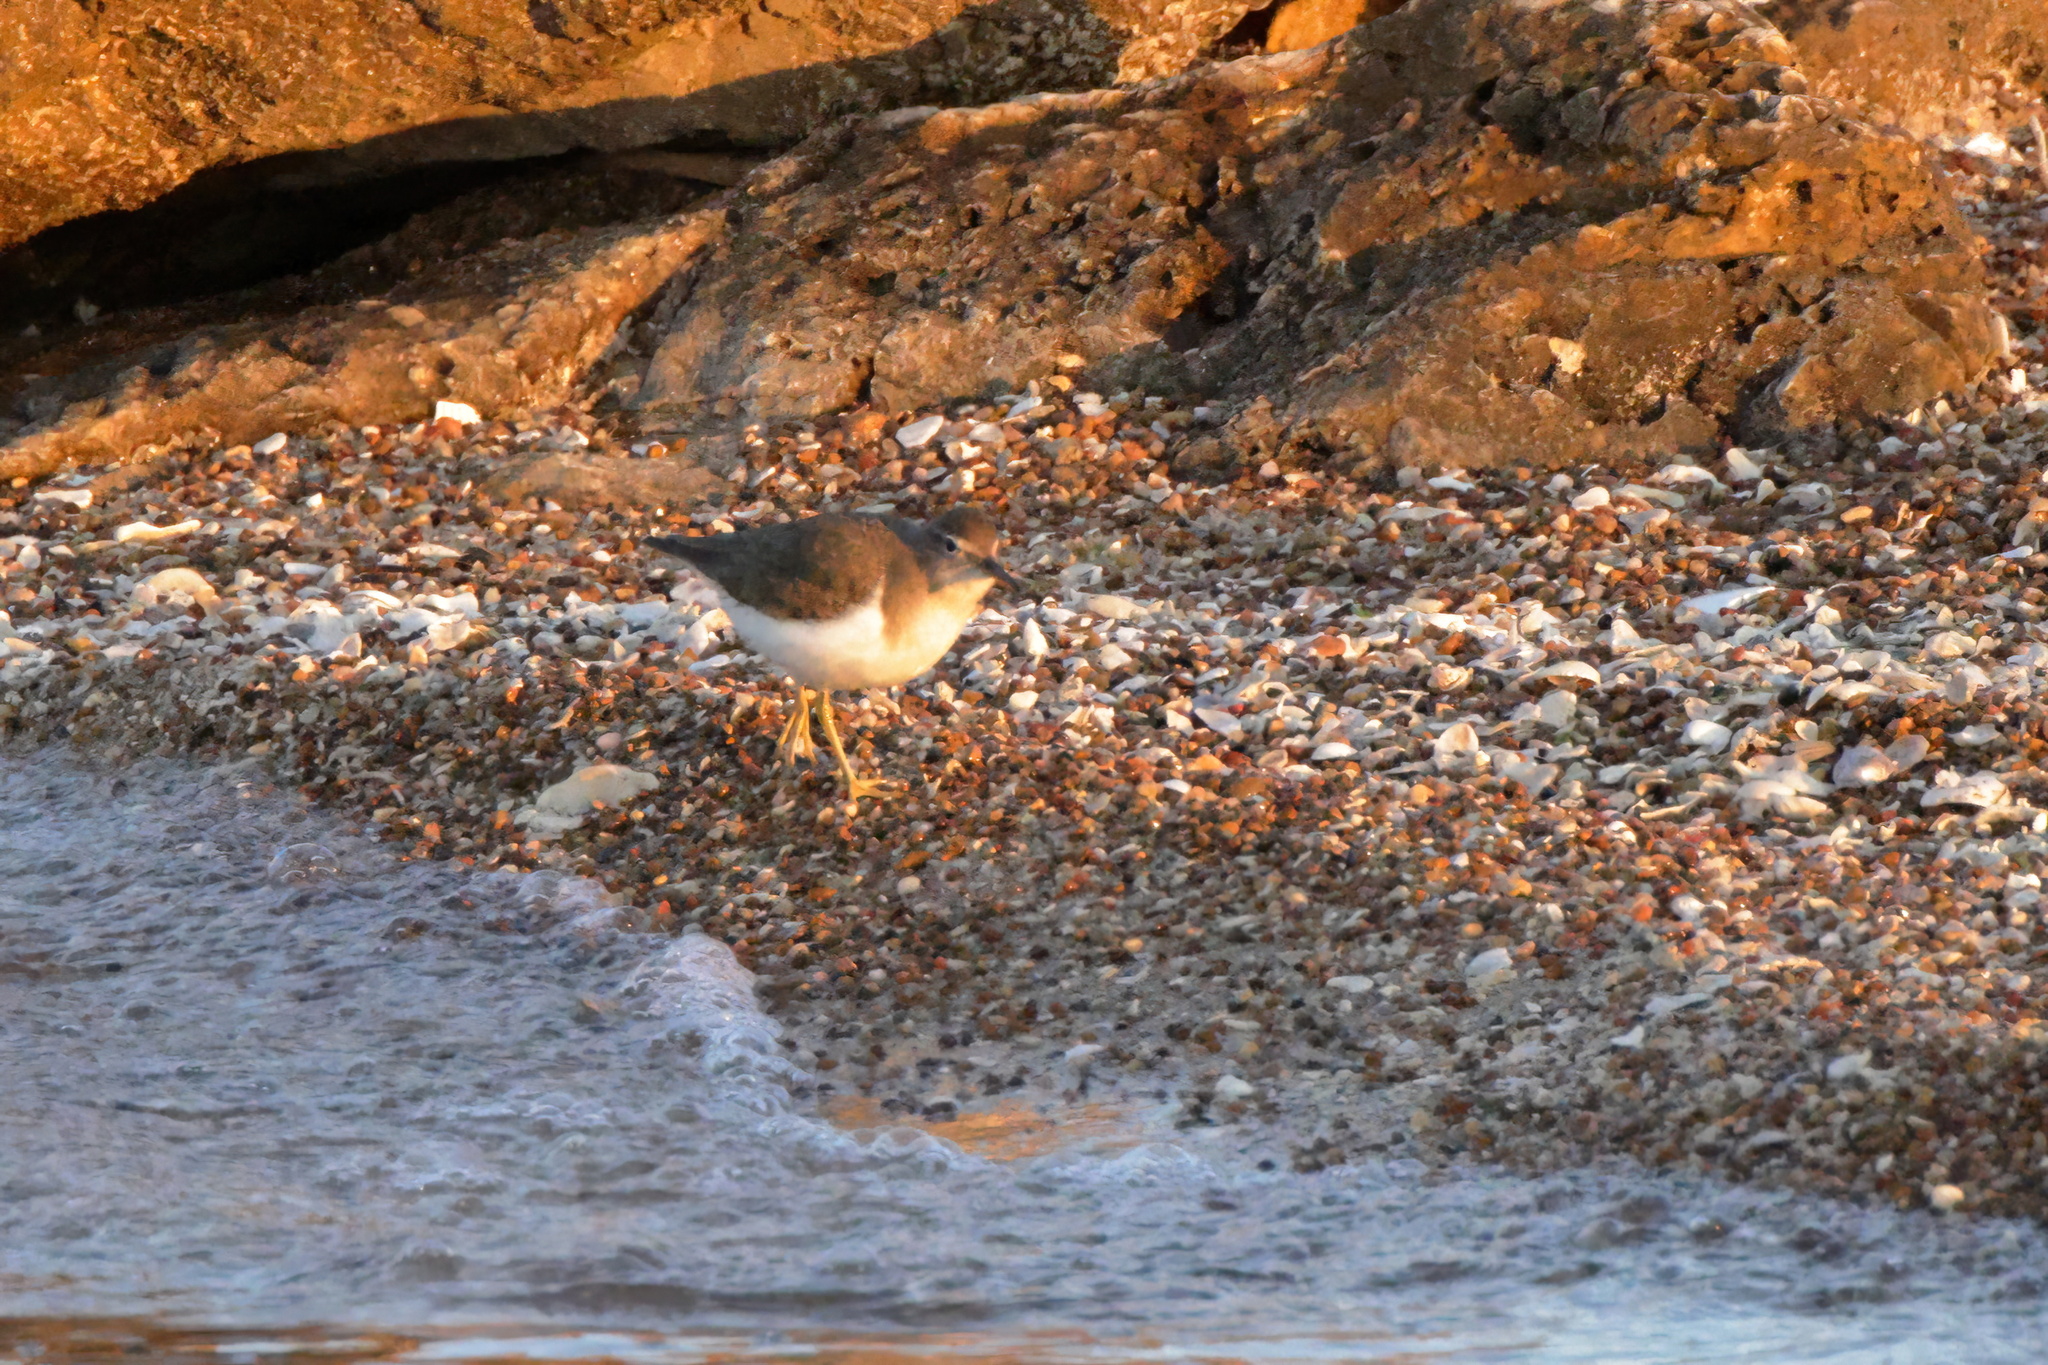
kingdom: Animalia
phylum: Chordata
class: Aves
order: Charadriiformes
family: Scolopacidae
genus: Actitis
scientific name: Actitis macularius
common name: Spotted sandpiper
